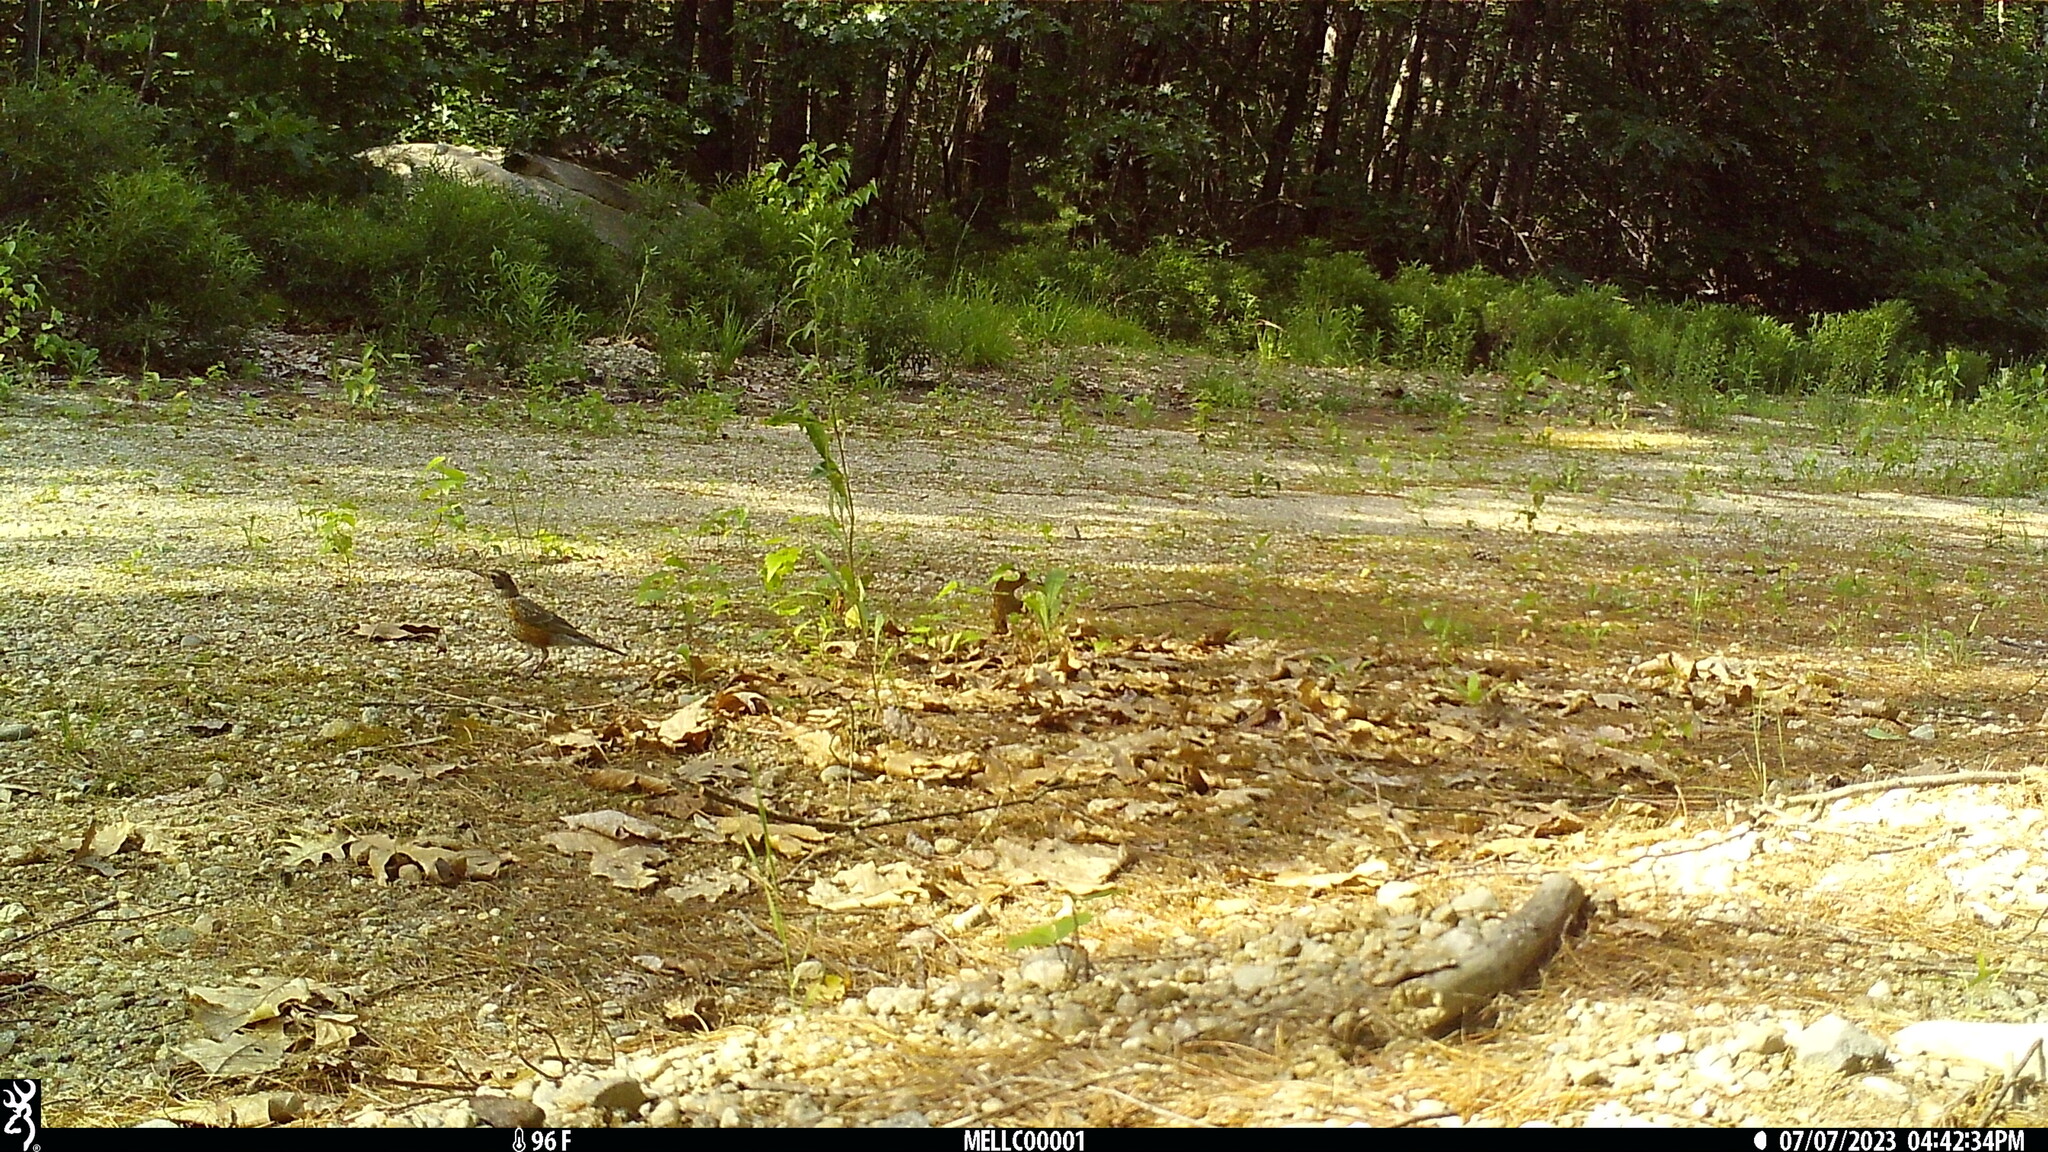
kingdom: Animalia
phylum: Chordata
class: Aves
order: Passeriformes
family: Turdidae
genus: Turdus
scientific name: Turdus migratorius
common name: American robin
